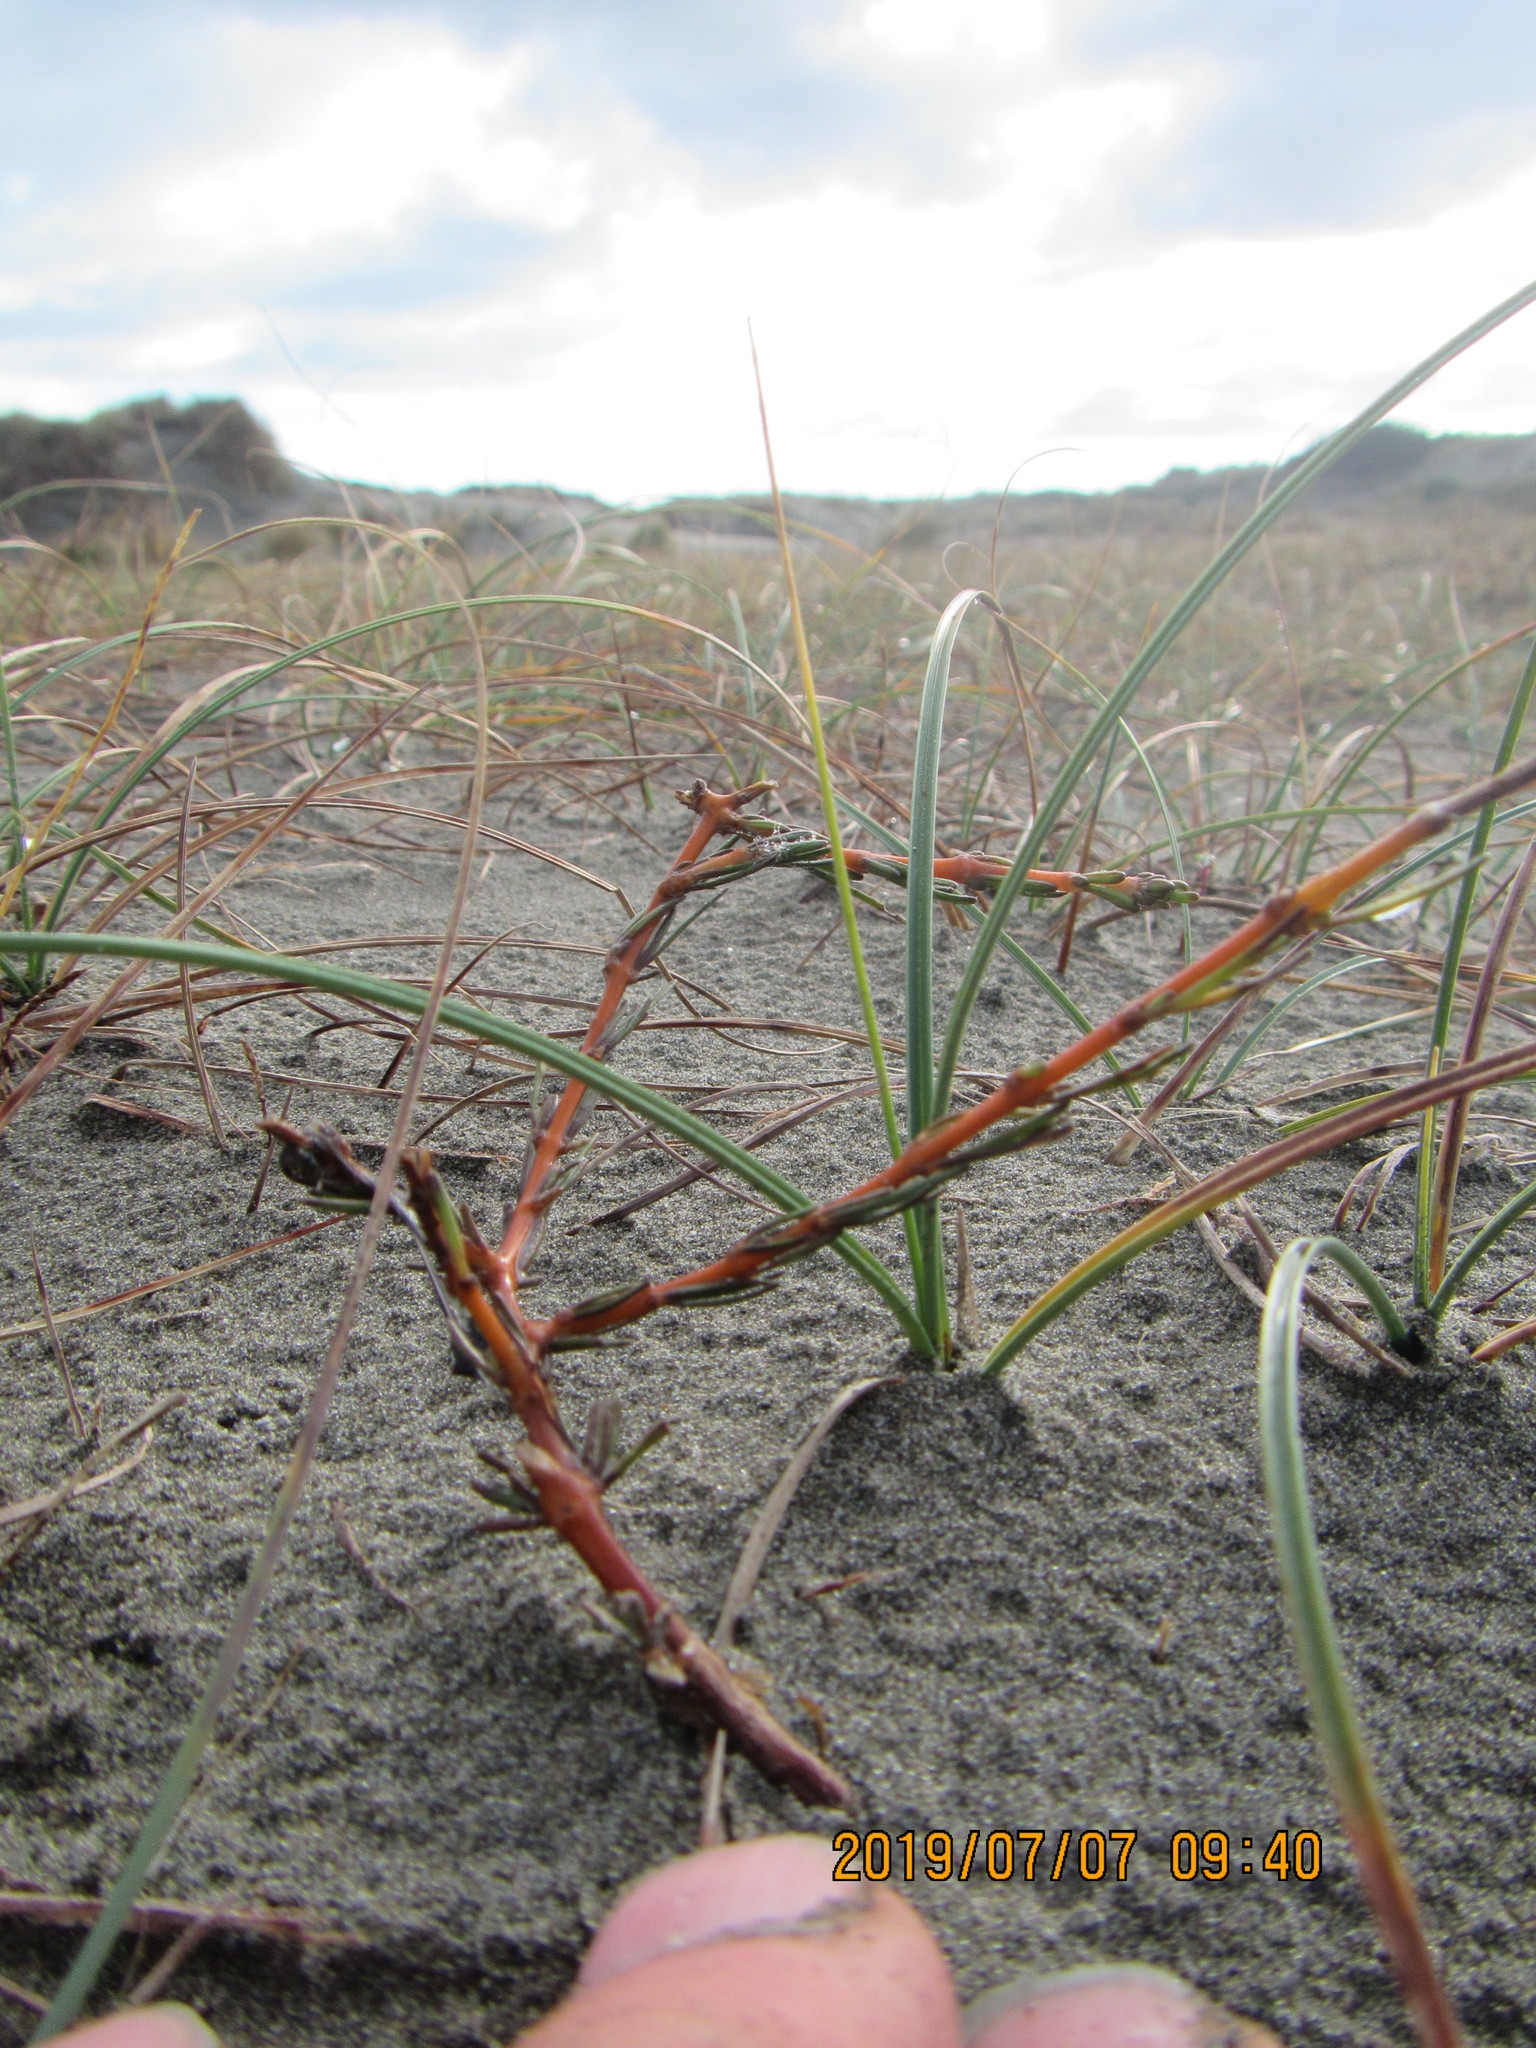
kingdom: Plantae
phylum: Tracheophyta
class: Magnoliopsida
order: Gentianales
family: Rubiaceae
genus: Coprosma
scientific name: Coprosma acerosa
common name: Sand coprosma
